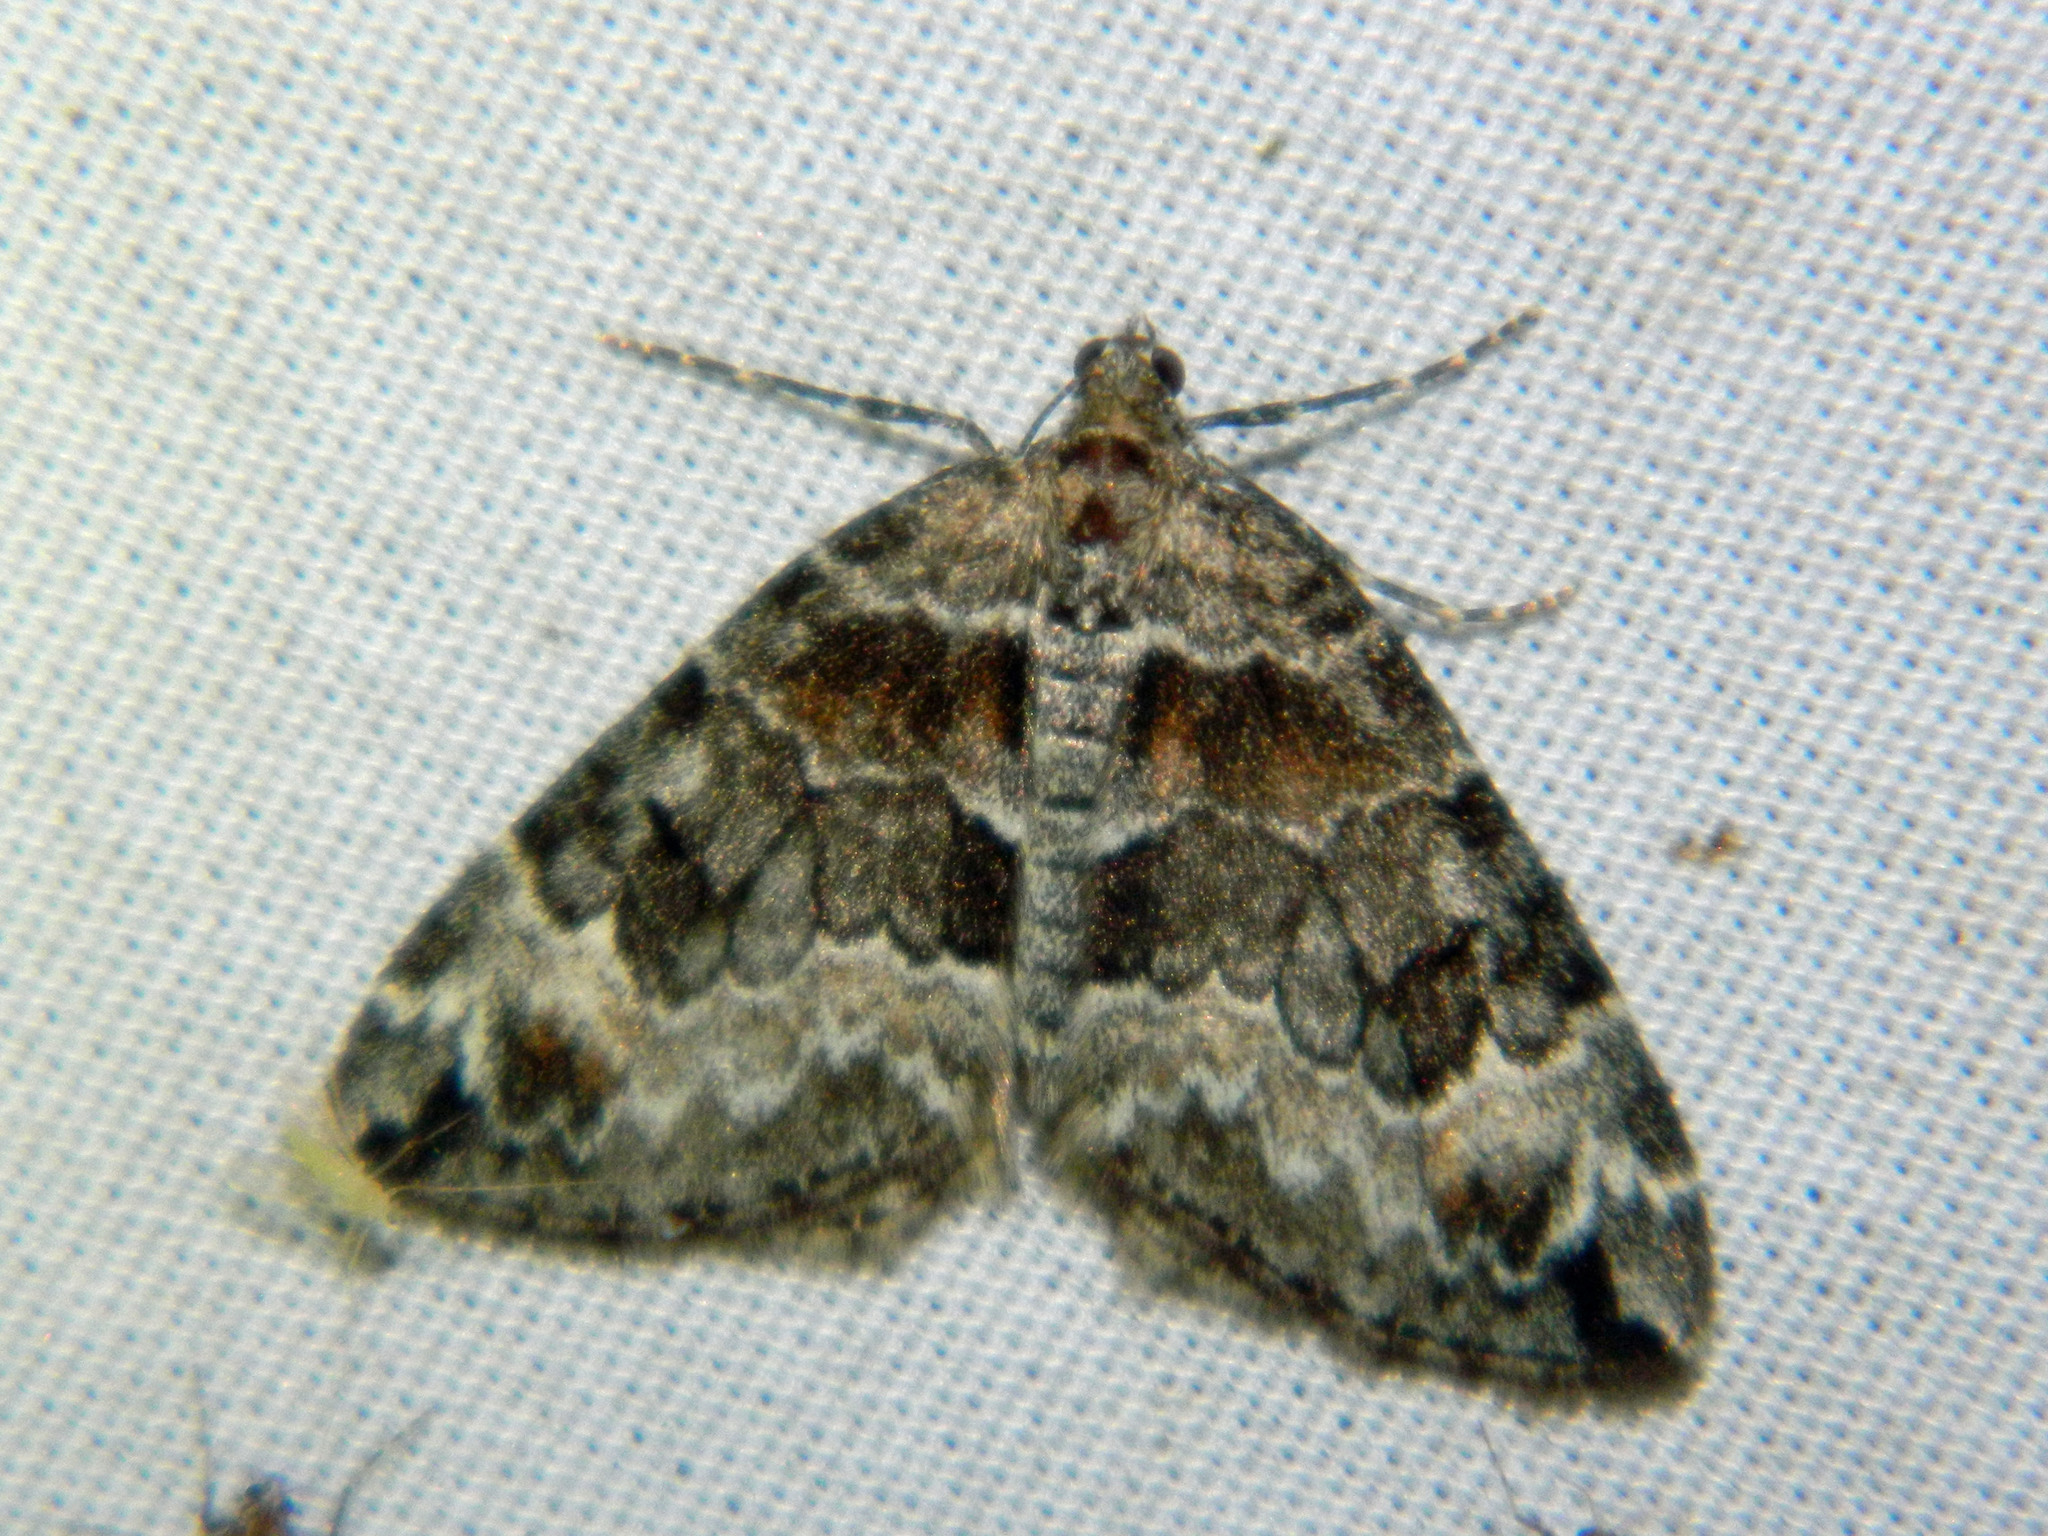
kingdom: Animalia
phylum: Arthropoda
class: Insecta
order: Lepidoptera
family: Geometridae
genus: Dysstroma
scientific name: Dysstroma hersiliata
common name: Orange-barred carpet
